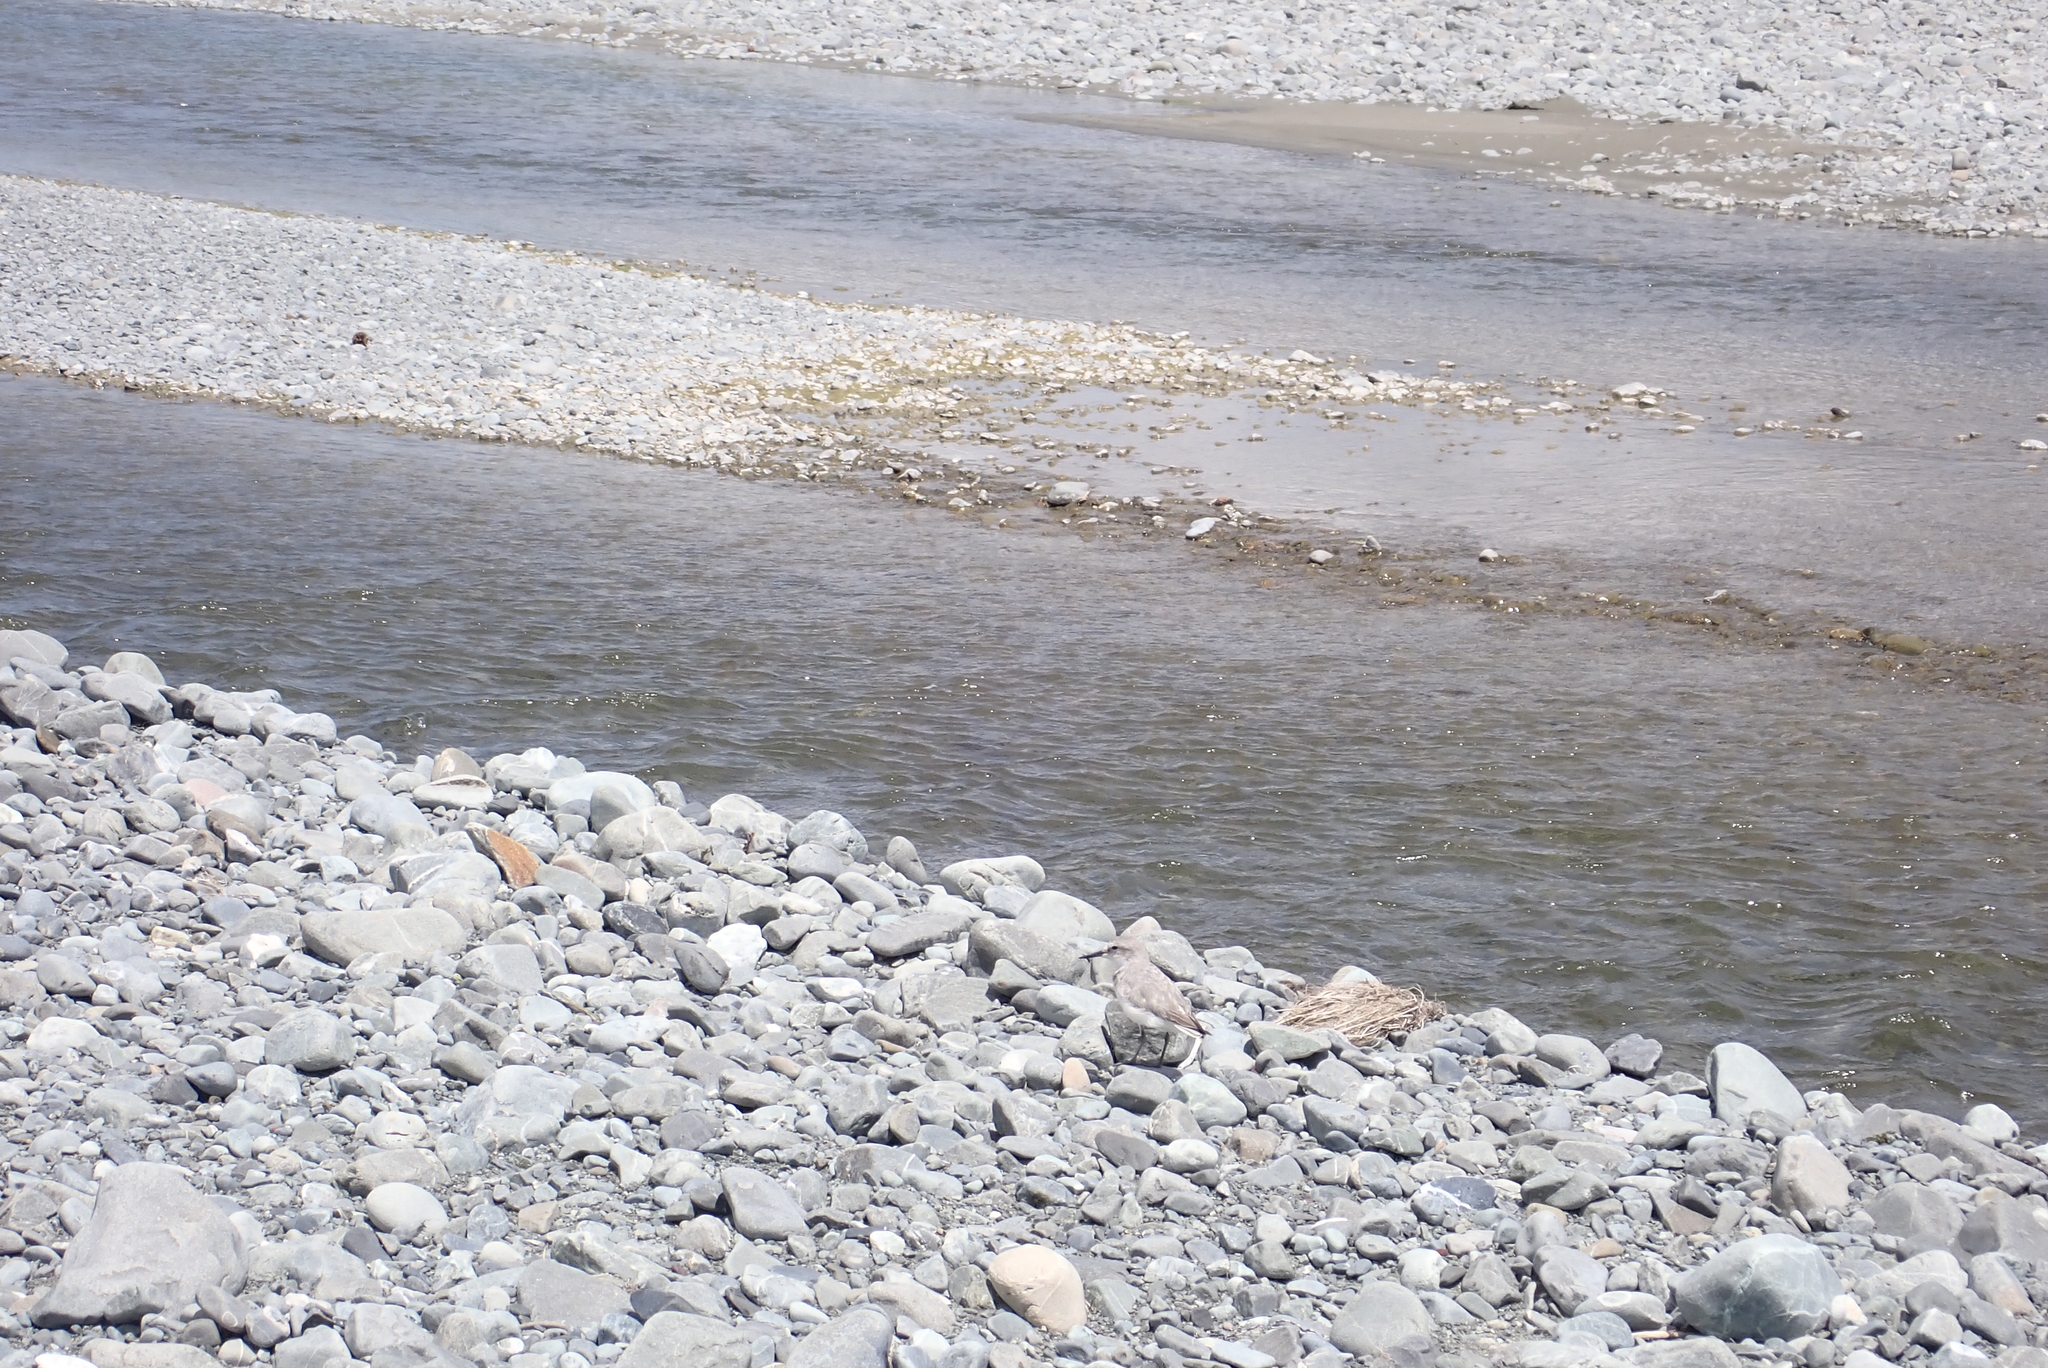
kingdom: Animalia
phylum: Chordata
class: Aves
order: Charadriiformes
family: Charadriidae
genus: Anarhynchus
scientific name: Anarhynchus frontalis
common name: Wrybill
